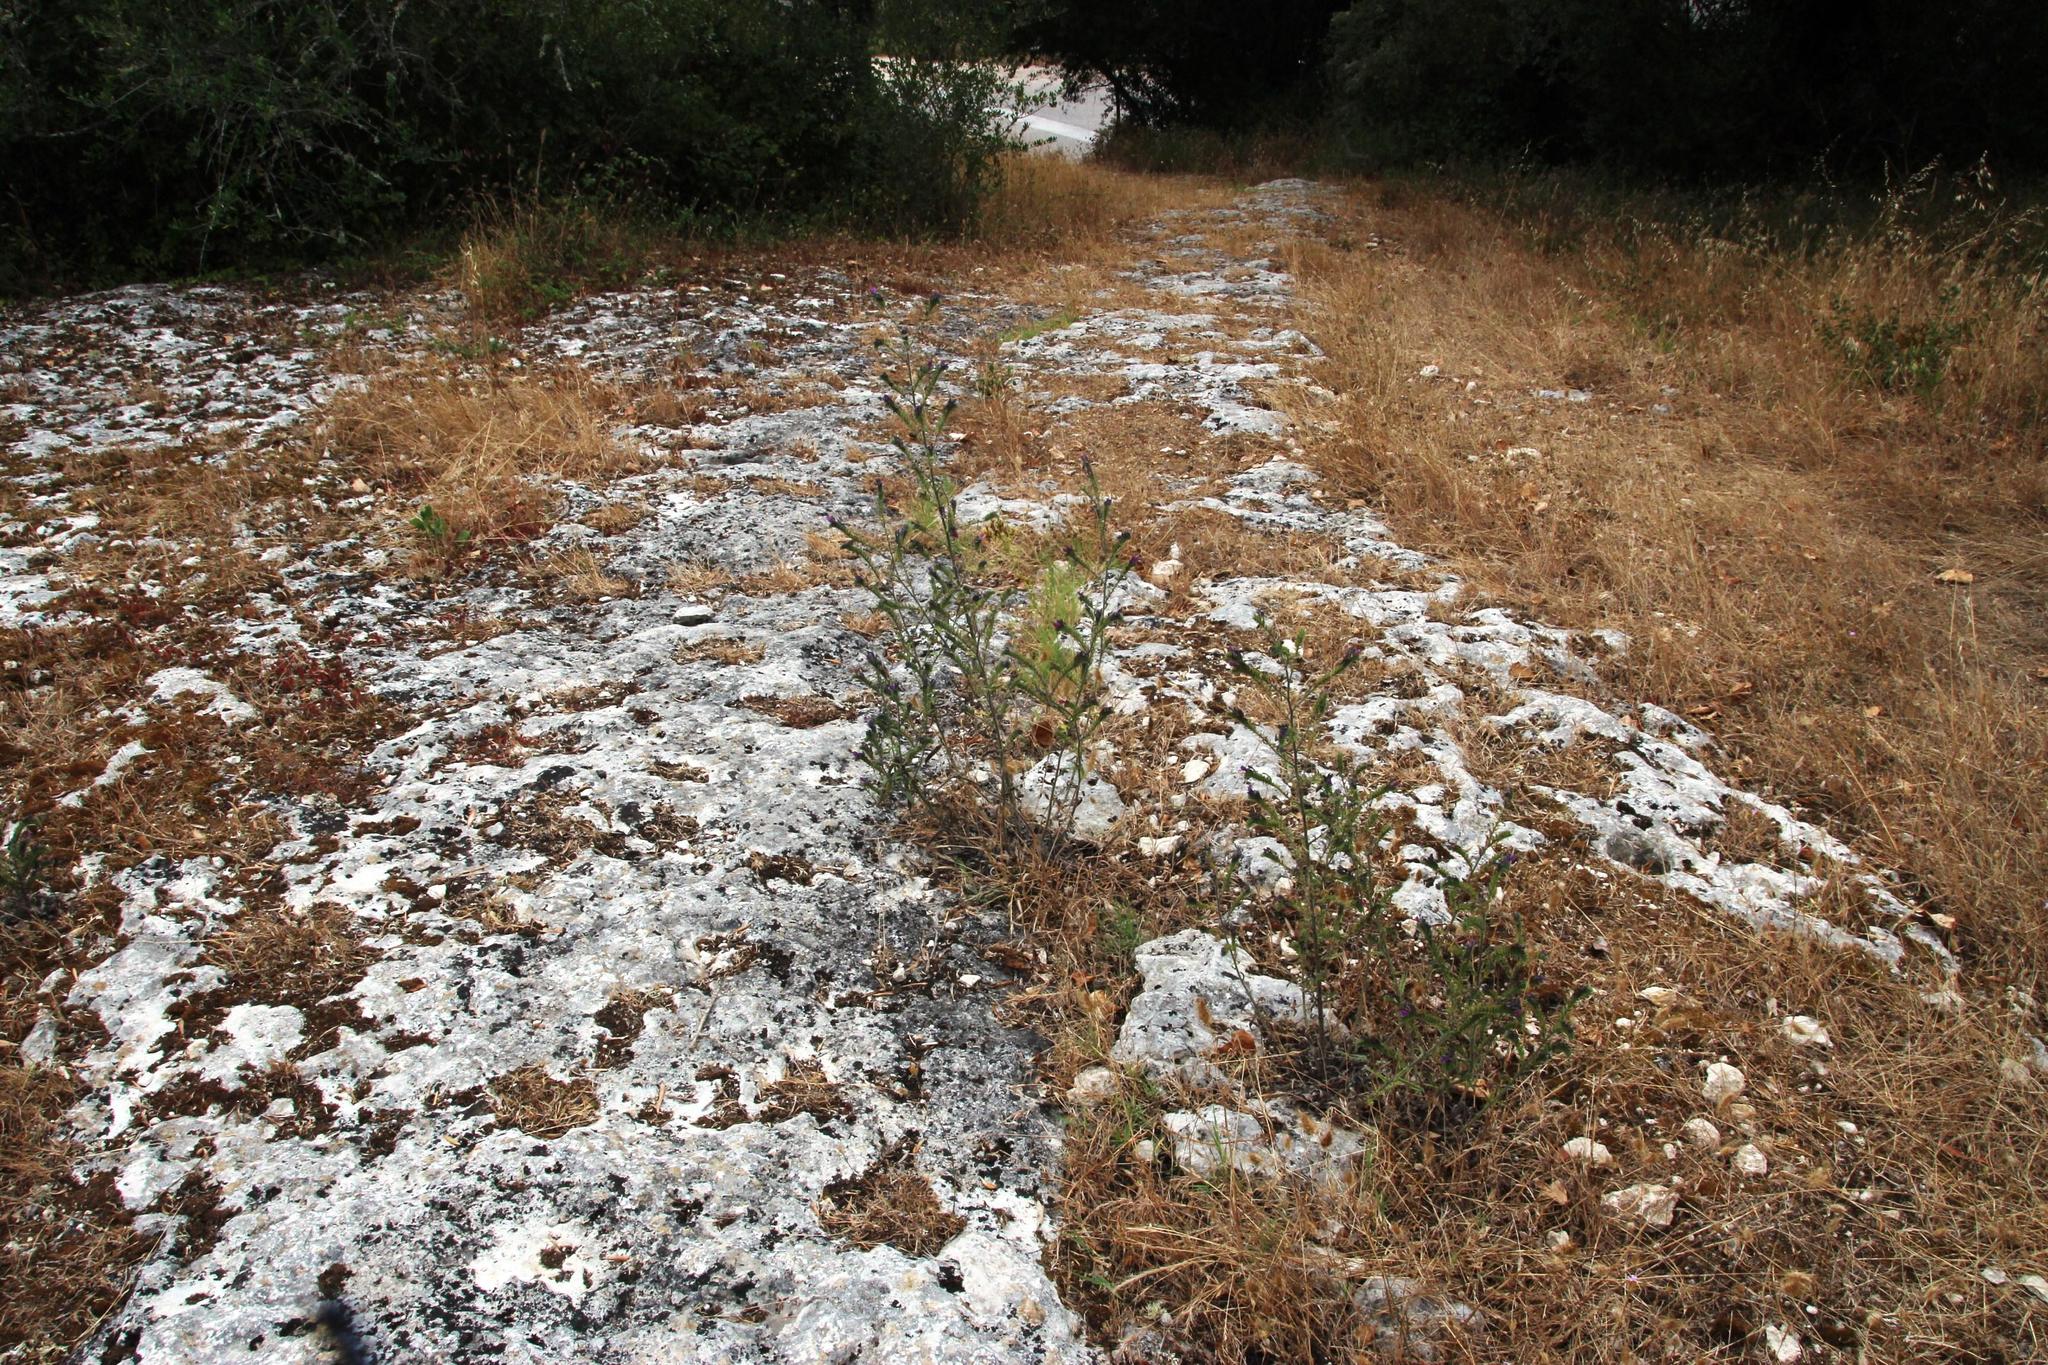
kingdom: Plantae
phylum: Tracheophyta
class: Magnoliopsida
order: Boraginales
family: Boraginaceae
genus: Echium
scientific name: Echium tuberculatum
